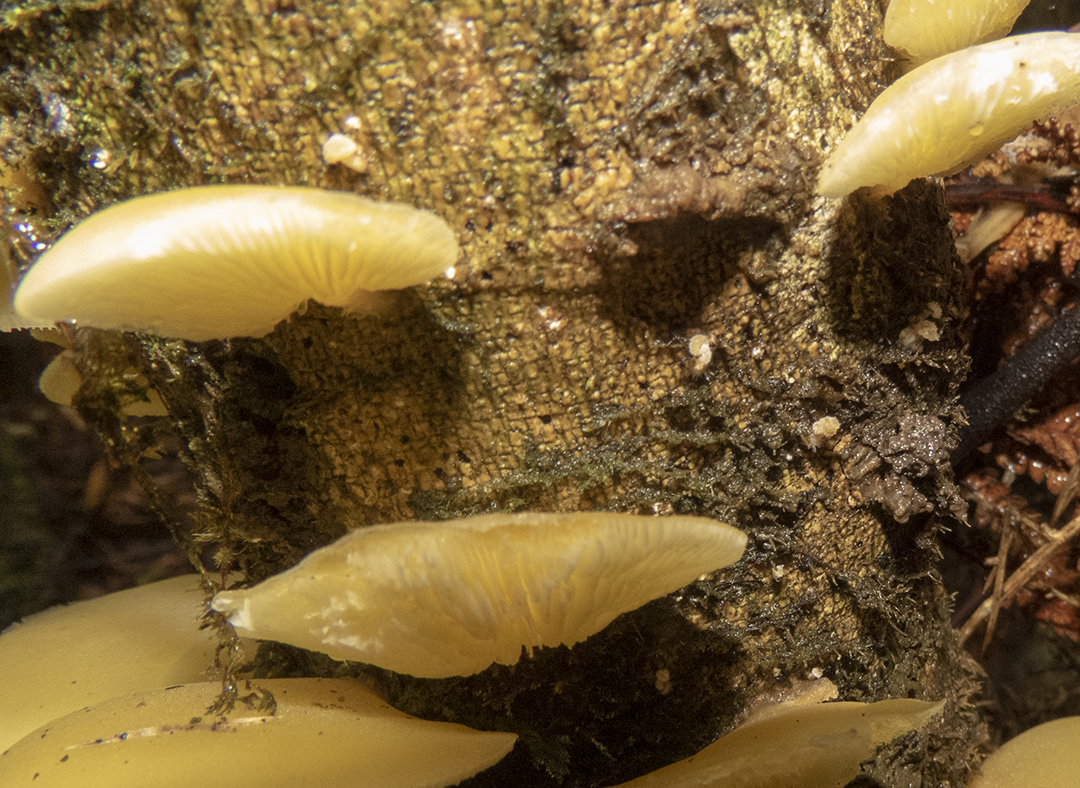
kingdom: Fungi
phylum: Basidiomycota
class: Agaricomycetes
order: Agaricales
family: Tricholomataceae
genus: Conchomyces
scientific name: Conchomyces bursiformis
